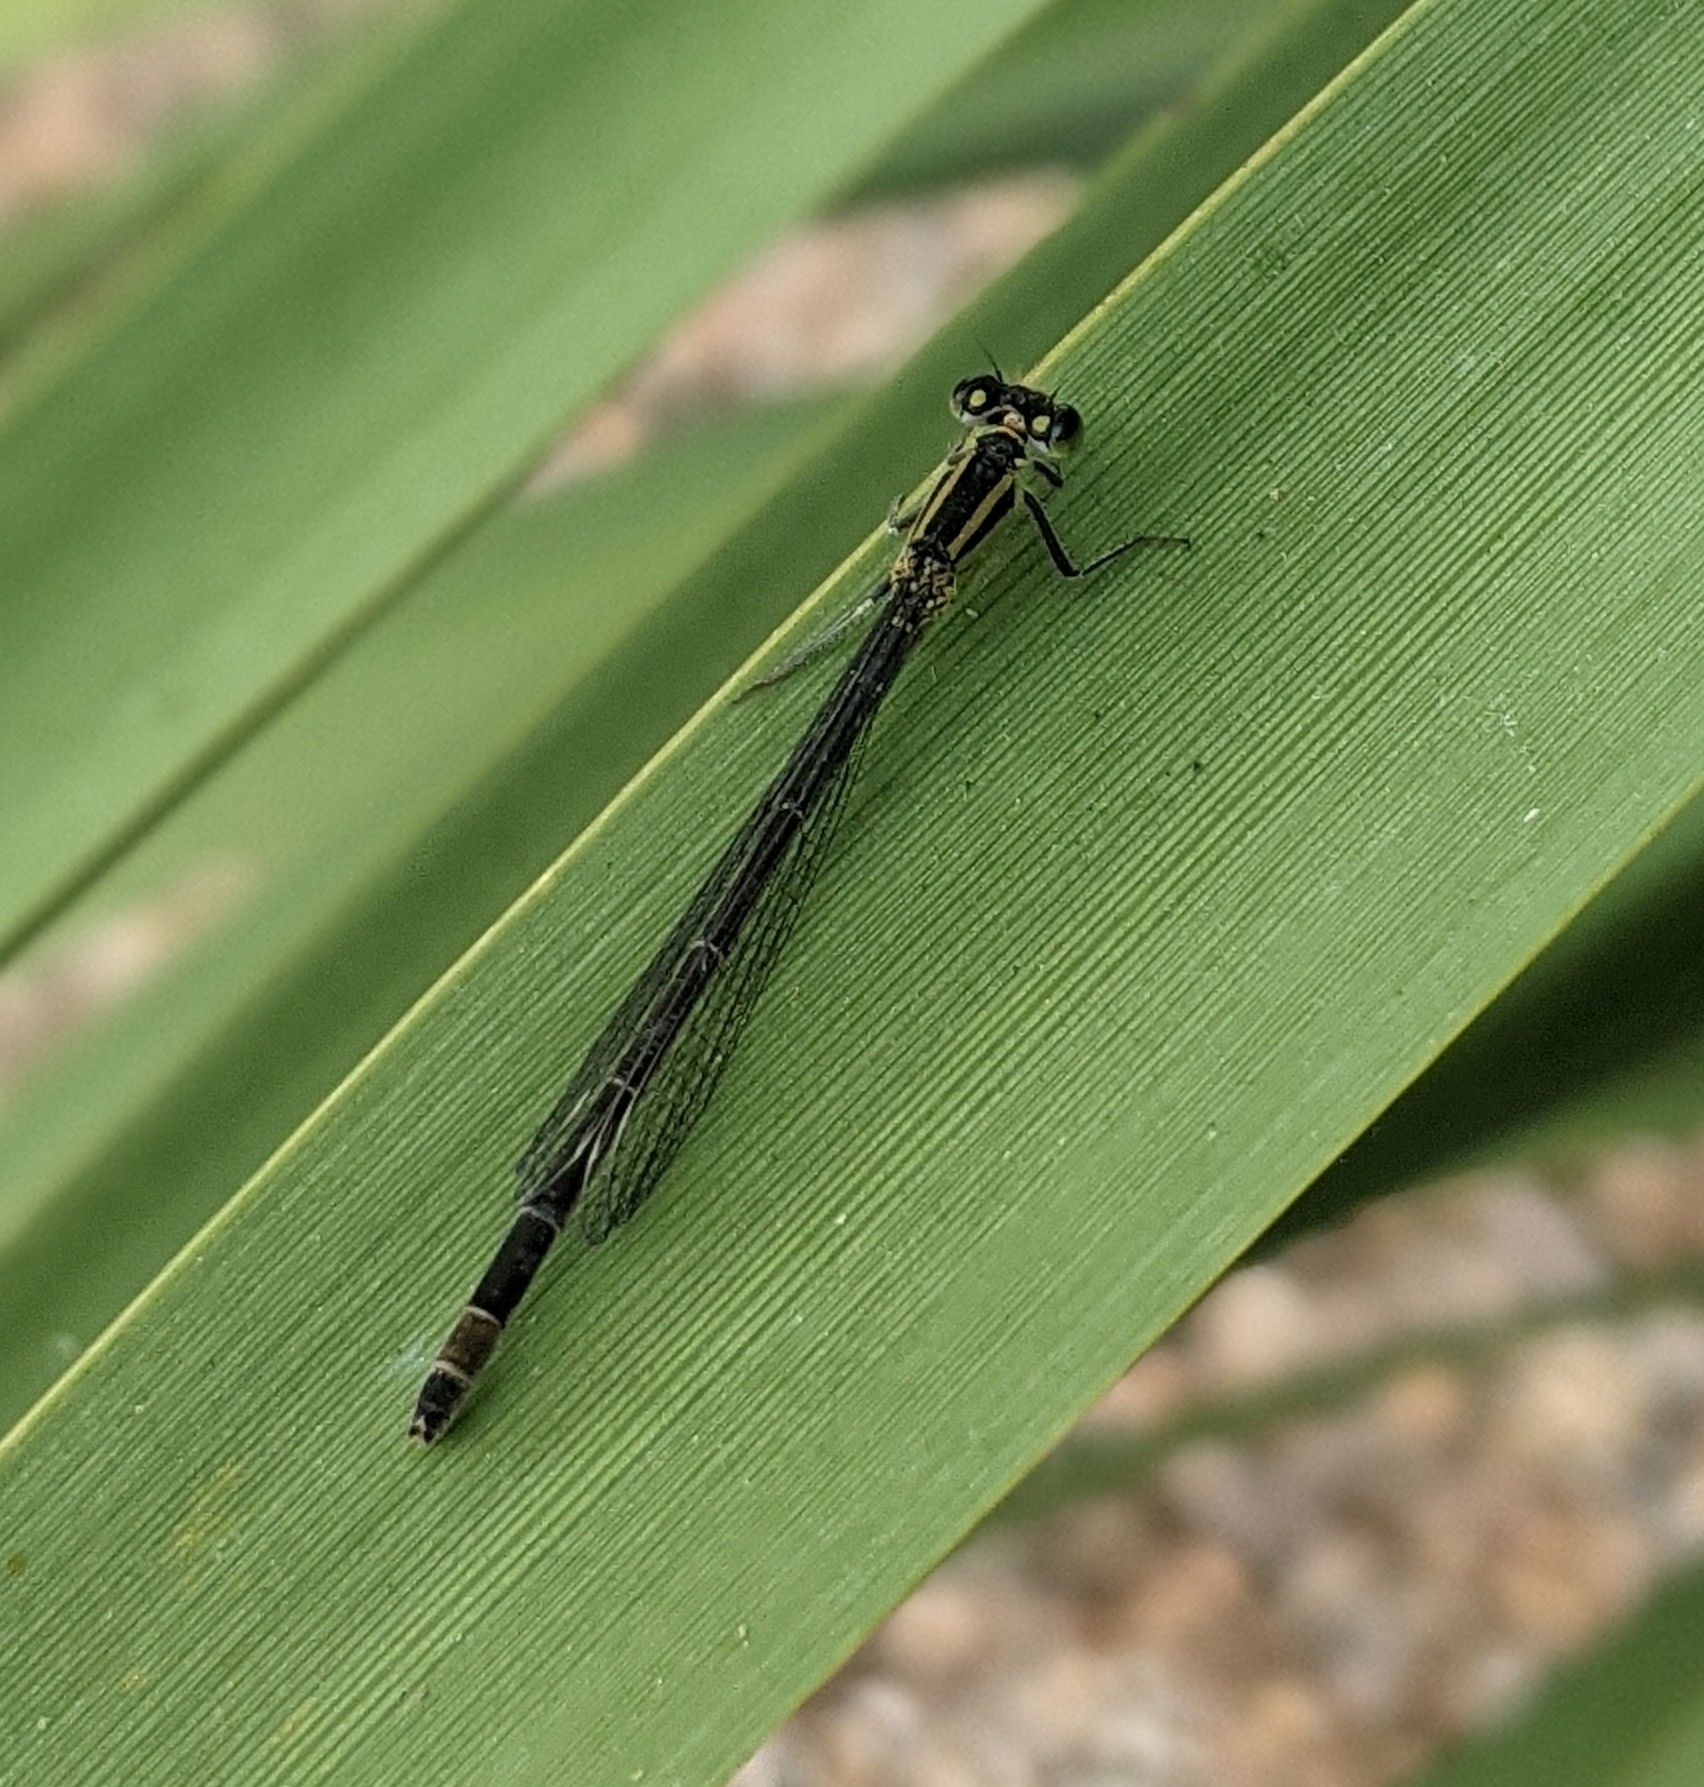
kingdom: Animalia
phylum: Arthropoda
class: Insecta
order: Odonata
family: Coenagrionidae
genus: Ischnura
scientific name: Ischnura elegans
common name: Blue-tailed damselfly
